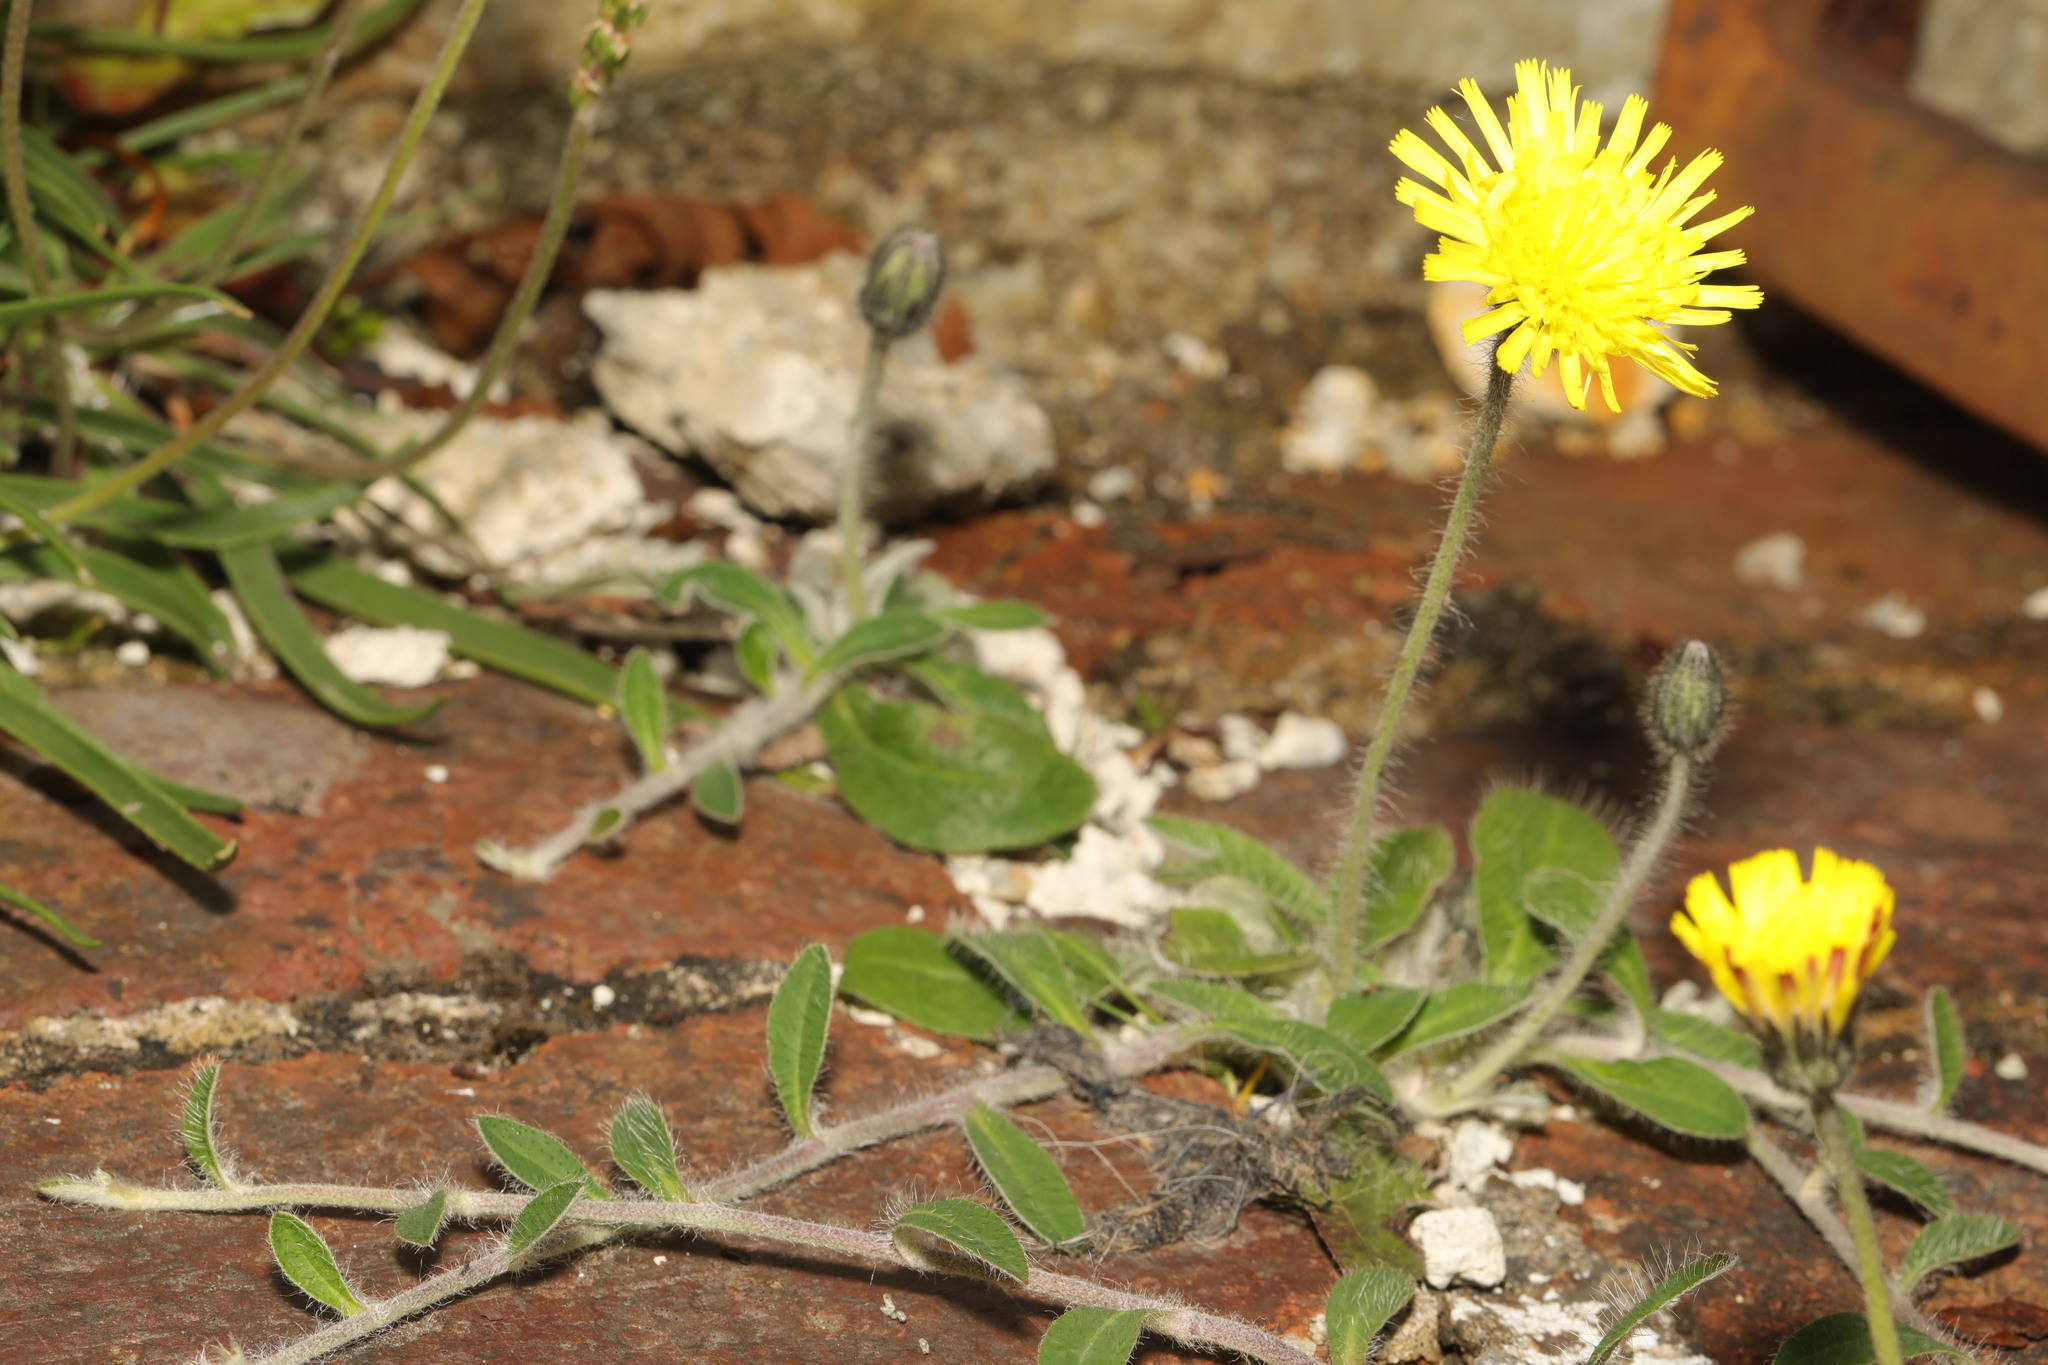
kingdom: Plantae
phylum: Tracheophyta
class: Magnoliopsida
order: Asterales
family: Asteraceae
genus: Pilosella
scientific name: Pilosella officinarum
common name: Mouse-ear hawkweed
